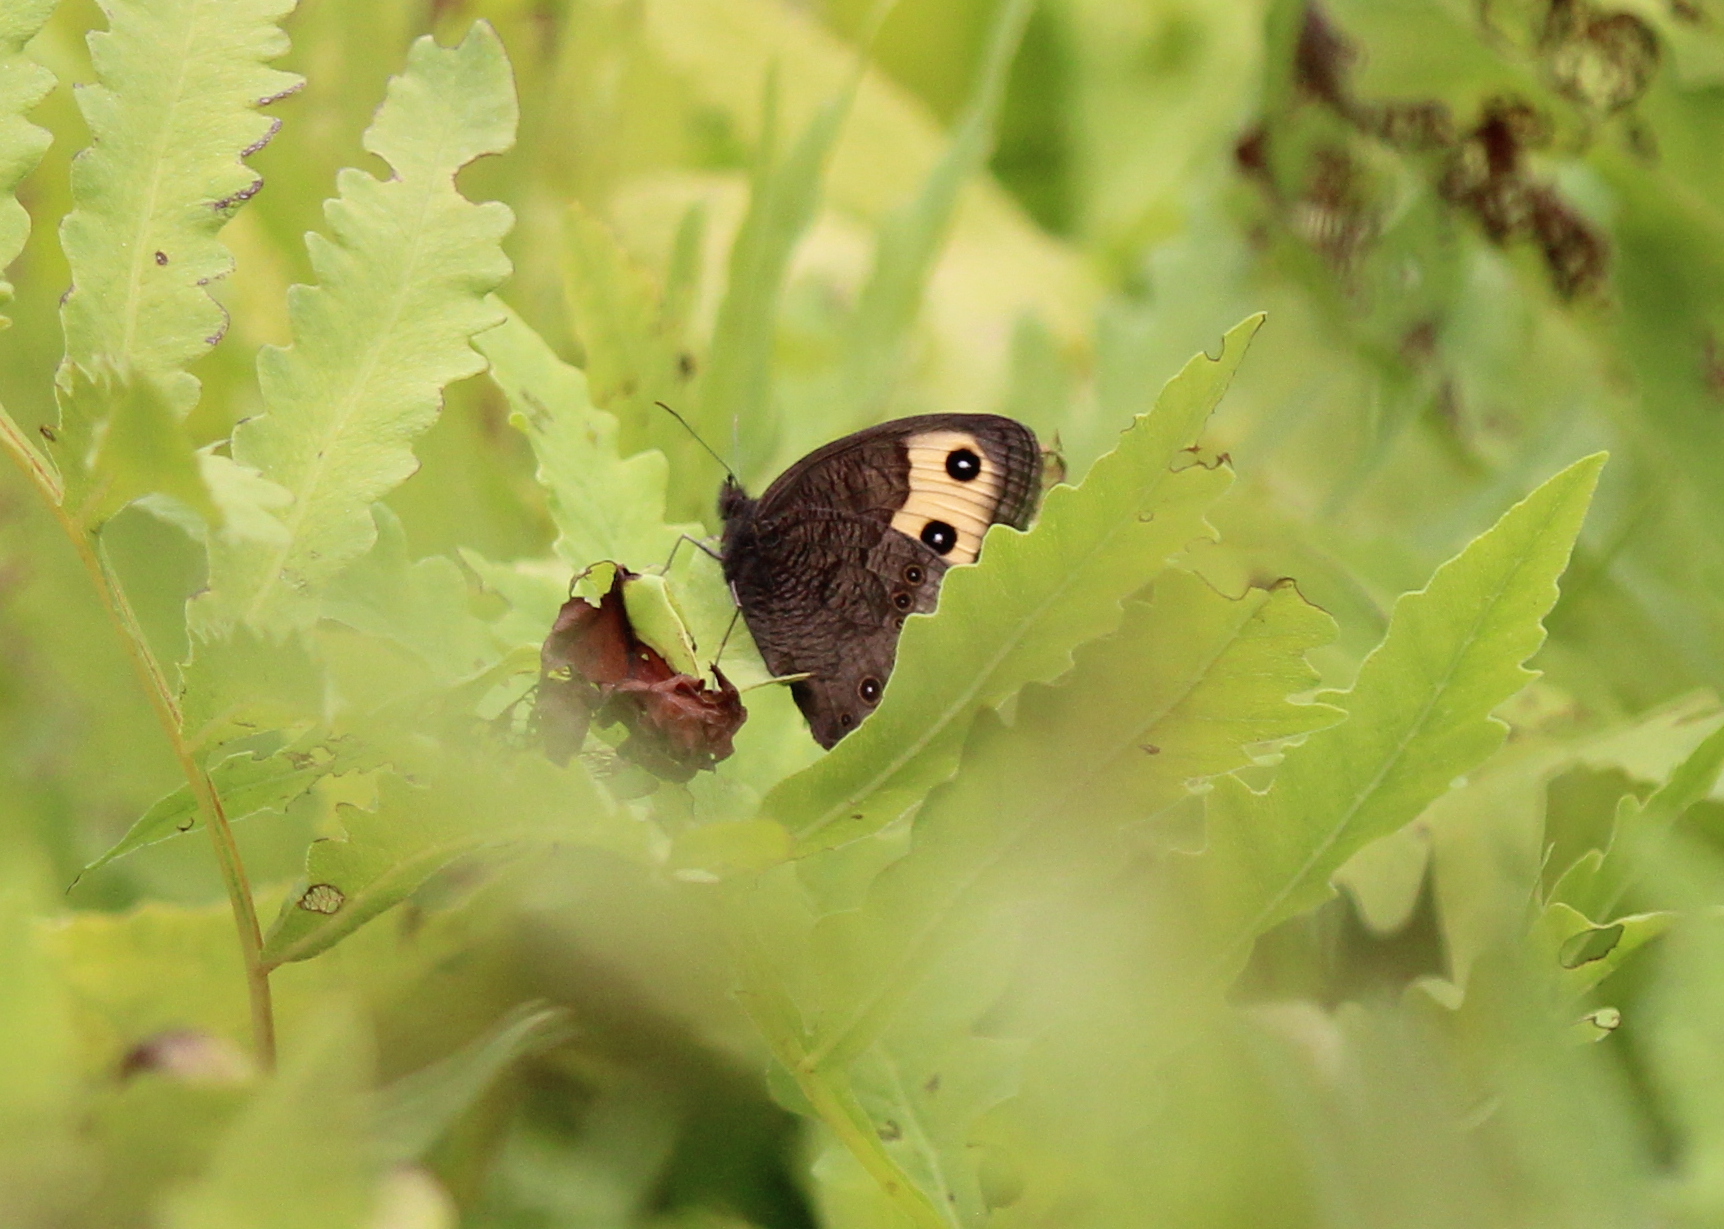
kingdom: Animalia
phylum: Arthropoda
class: Insecta
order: Lepidoptera
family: Nymphalidae
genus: Cercyonis
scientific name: Cercyonis pegala
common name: Common wood-nymph
